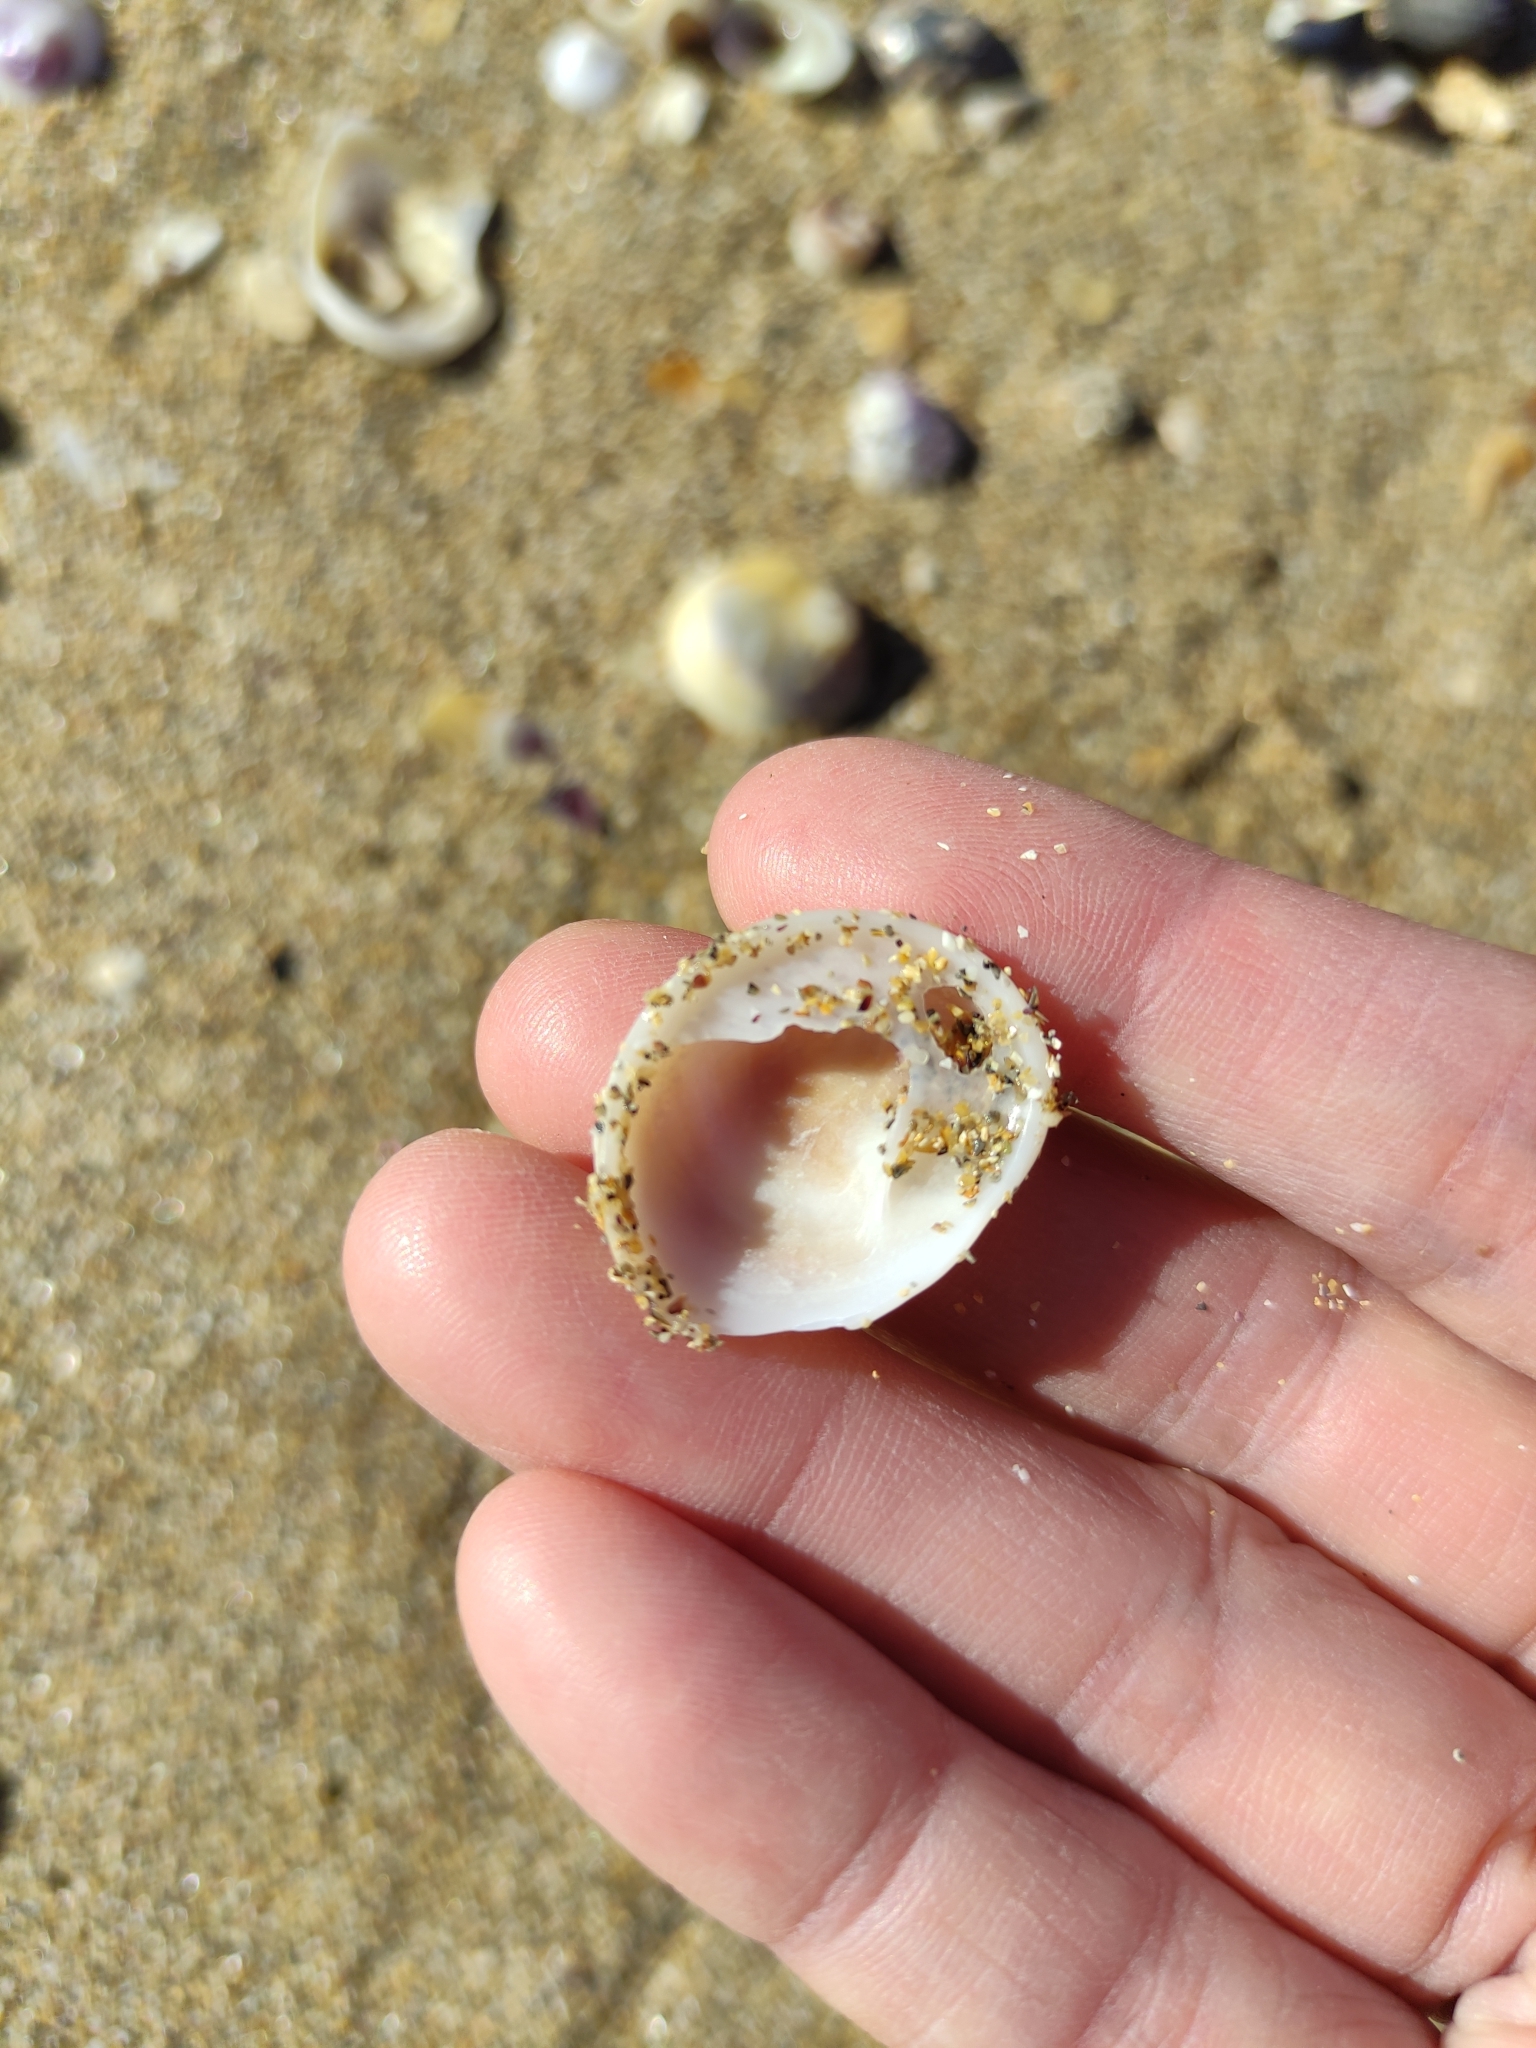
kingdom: Animalia
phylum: Mollusca
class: Gastropoda
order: Littorinimorpha
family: Calyptraeidae
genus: Sigapatella
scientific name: Sigapatella novaezelandiae
